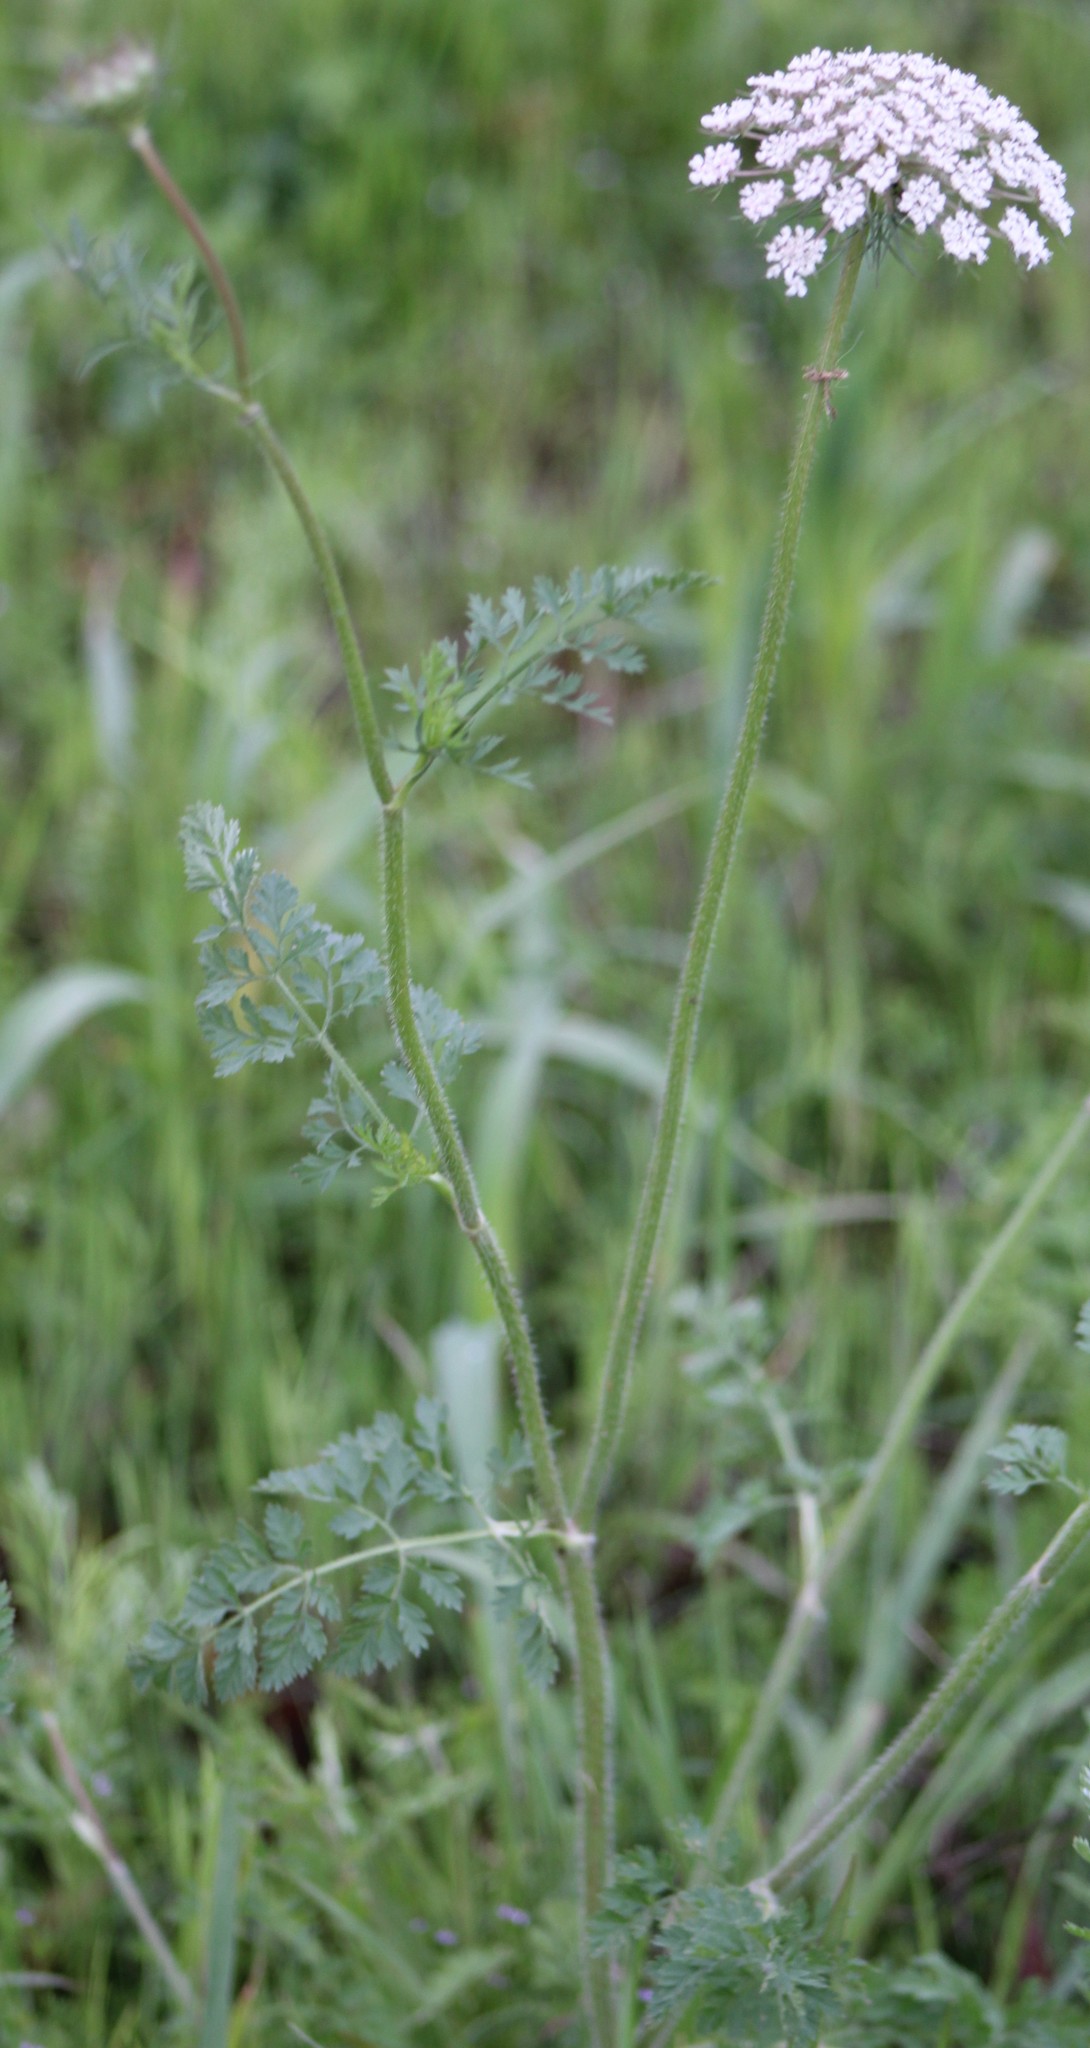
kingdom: Plantae
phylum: Tracheophyta
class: Magnoliopsida
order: Apiales
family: Apiaceae
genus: Daucus
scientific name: Daucus carota
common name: Wild carrot
